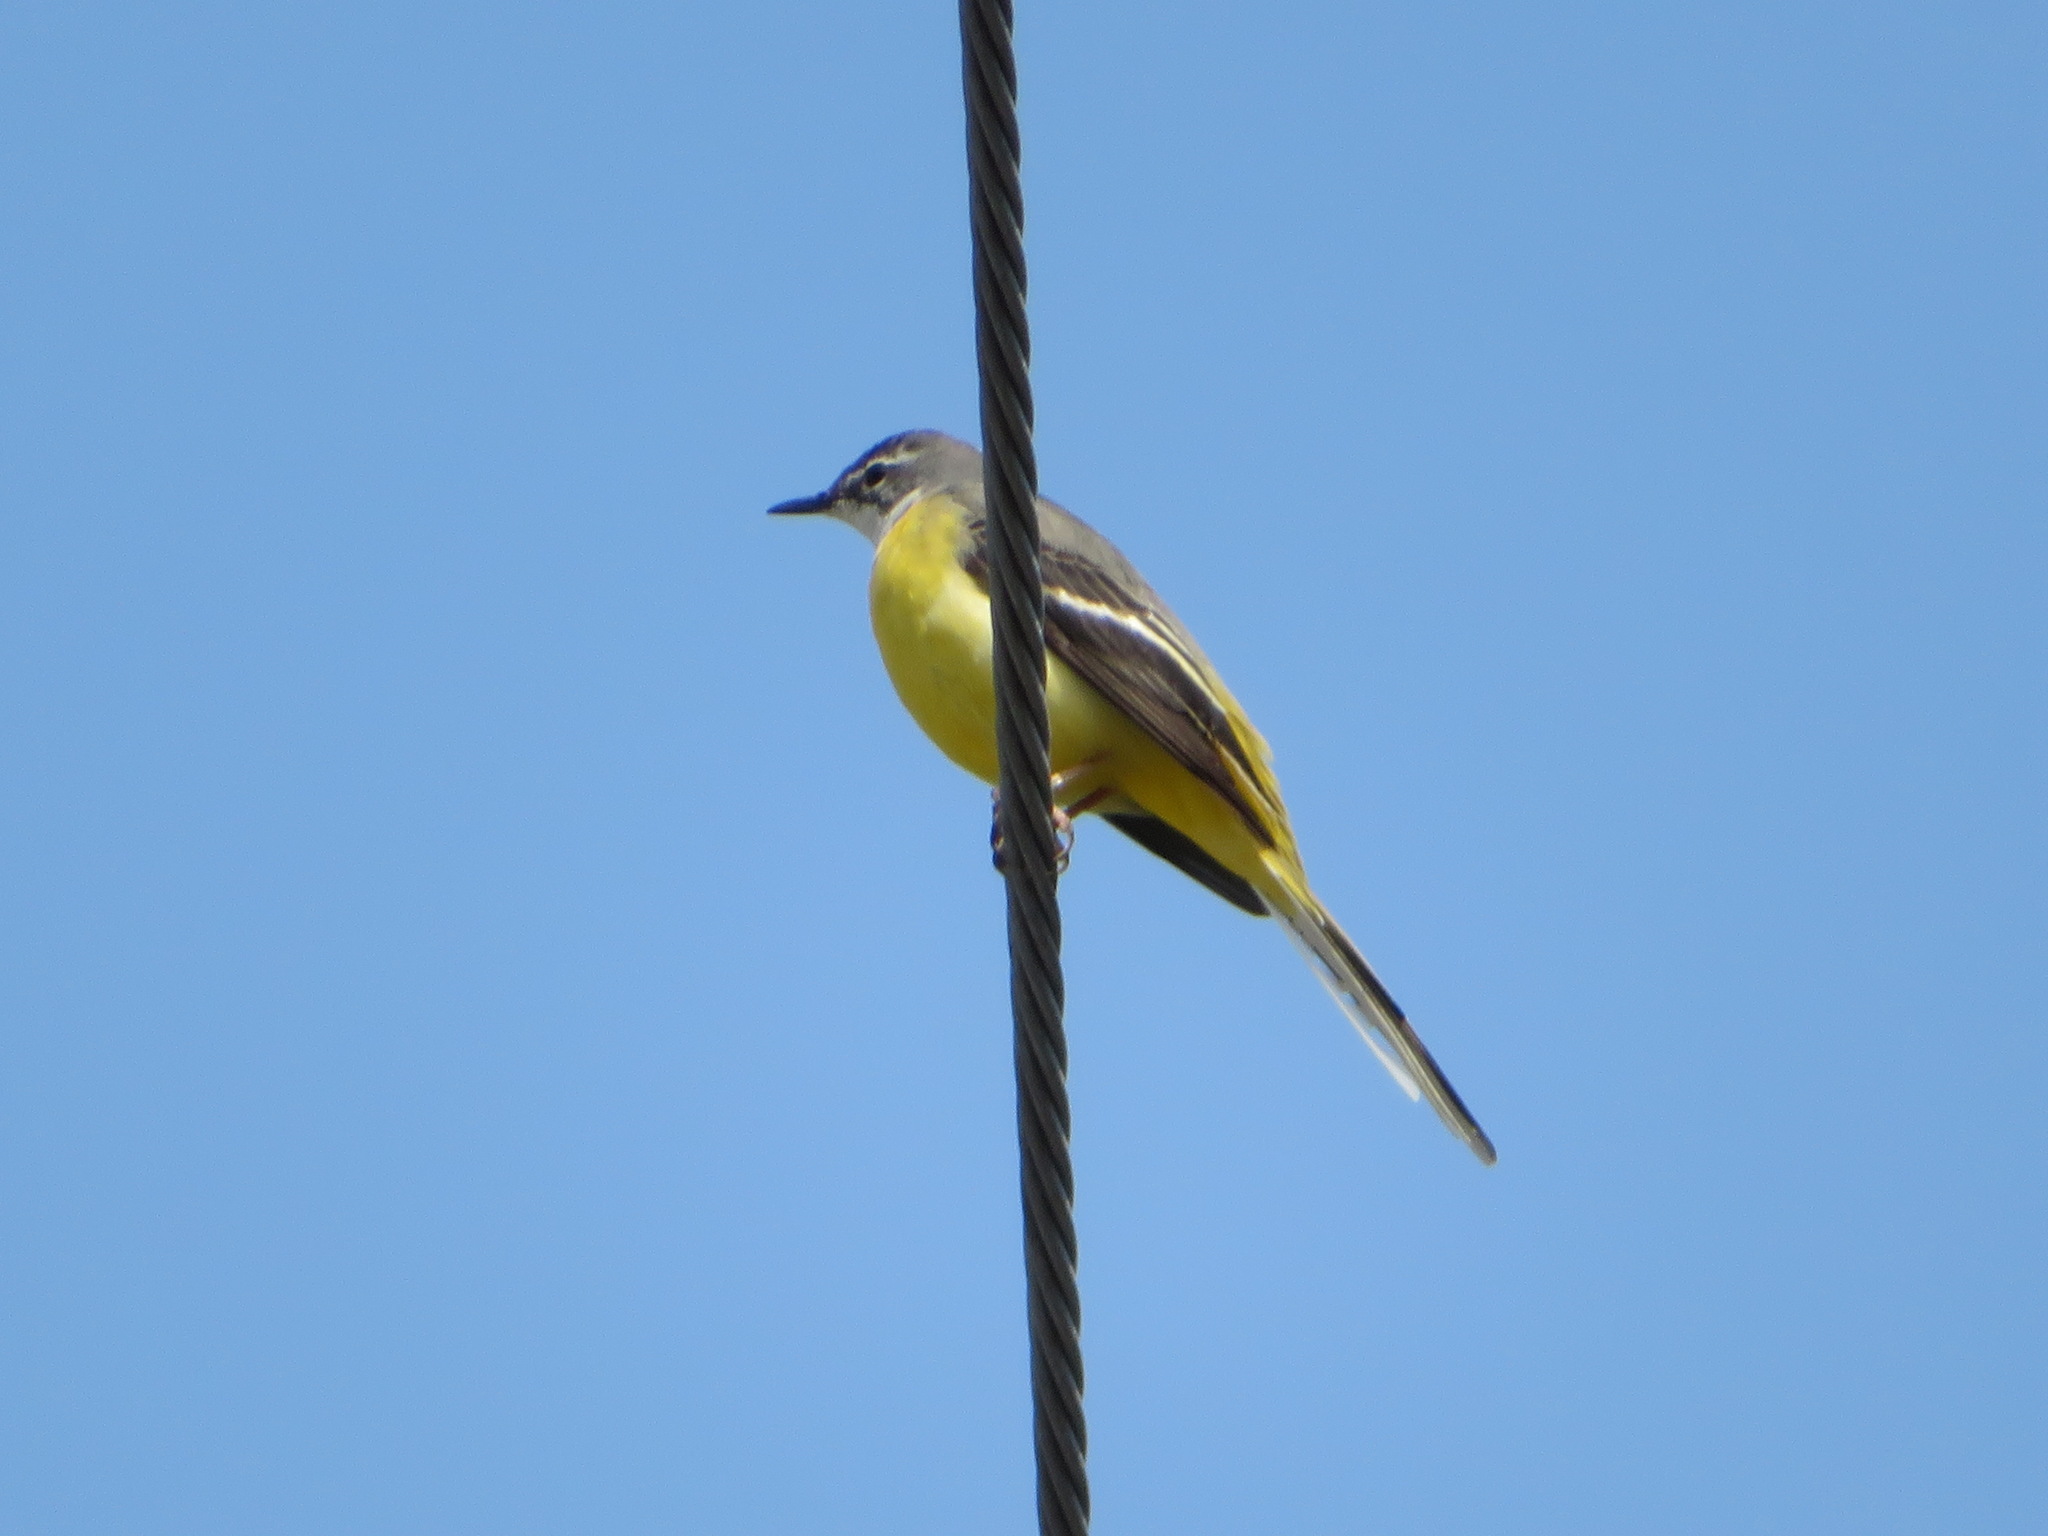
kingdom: Animalia
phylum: Chordata
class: Aves
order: Passeriformes
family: Motacillidae
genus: Motacilla
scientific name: Motacilla cinerea
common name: Grey wagtail
